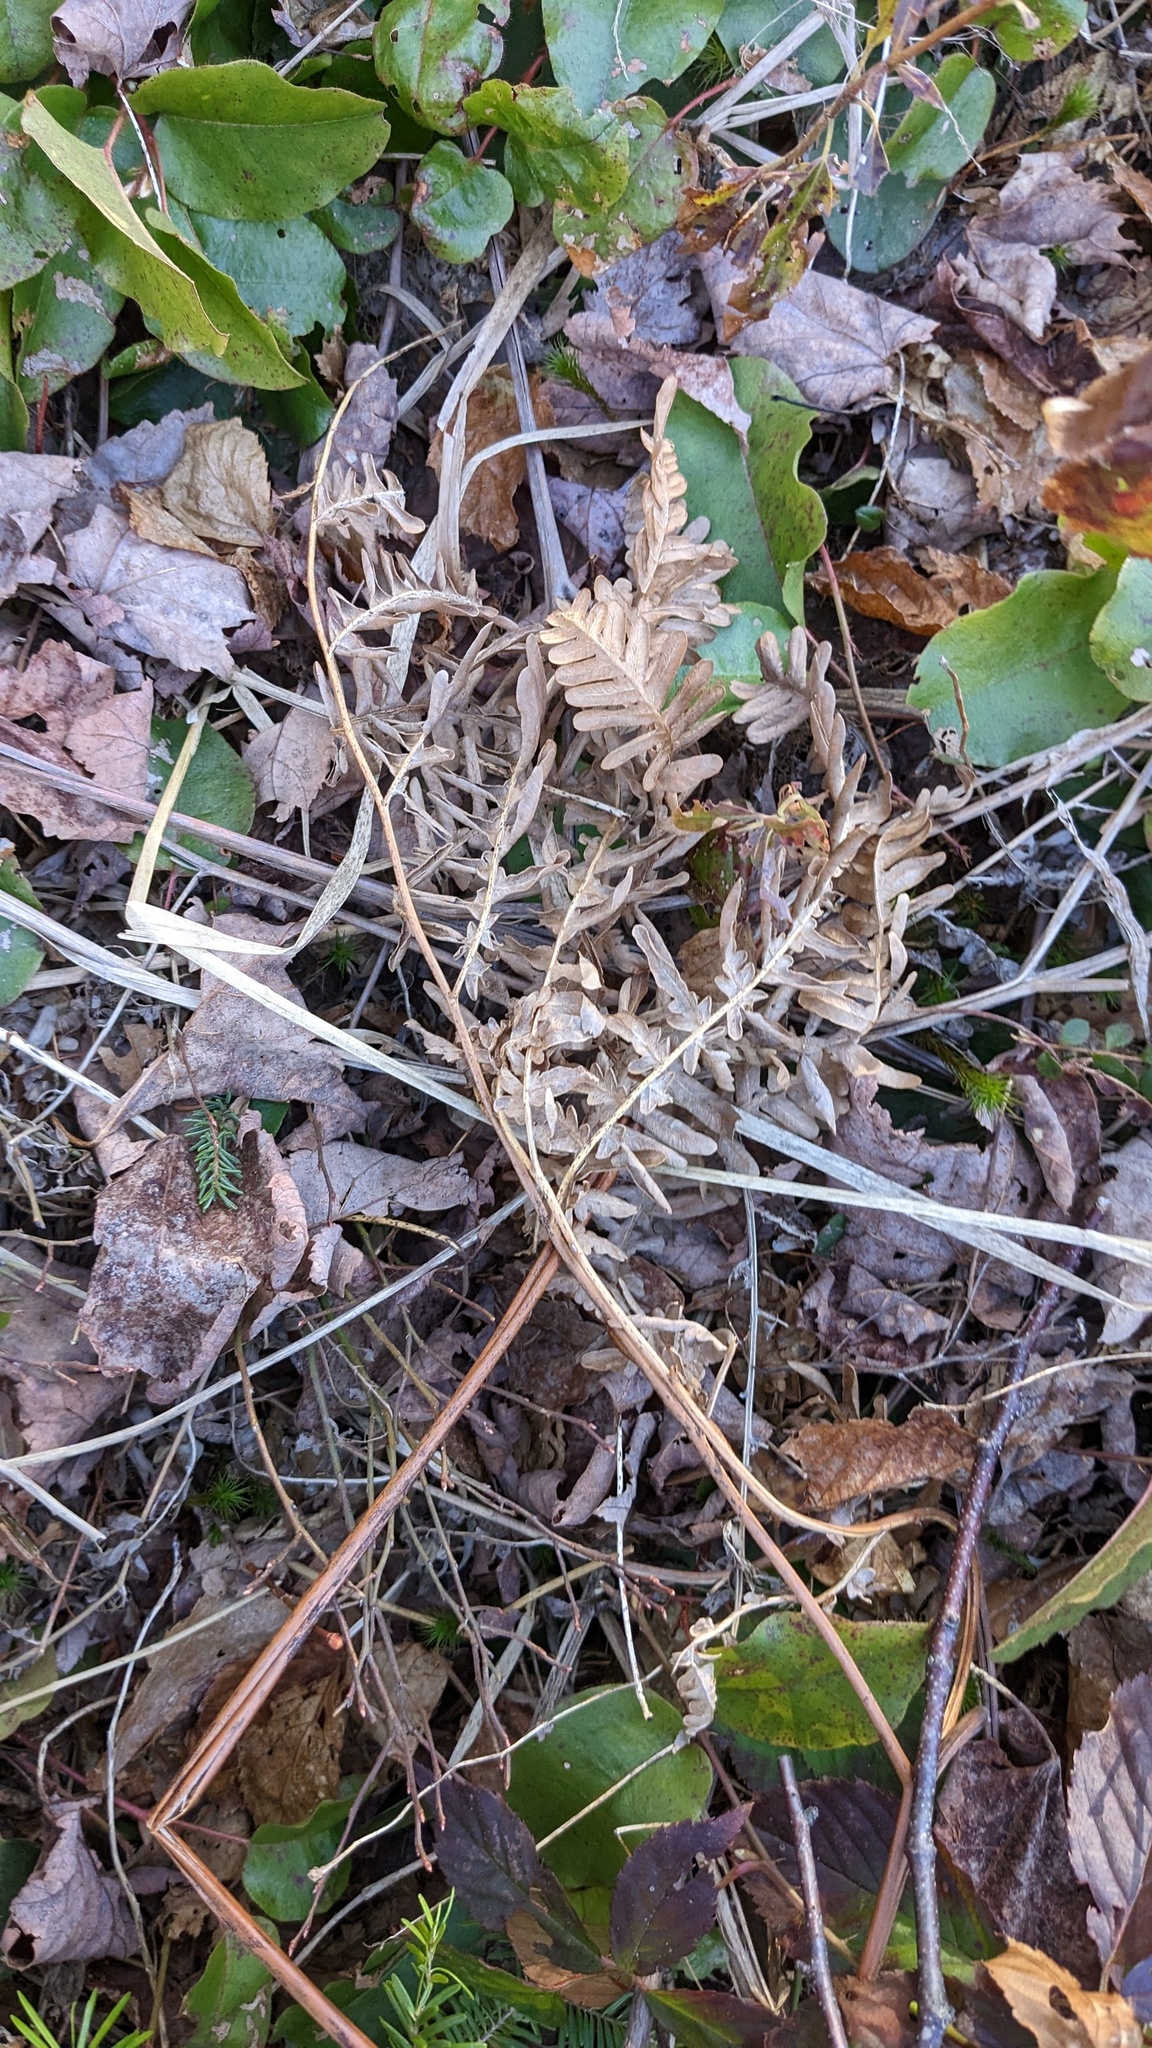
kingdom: Plantae
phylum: Tracheophyta
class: Polypodiopsida
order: Polypodiales
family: Dennstaedtiaceae
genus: Pteridium
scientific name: Pteridium aquilinum
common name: Bracken
